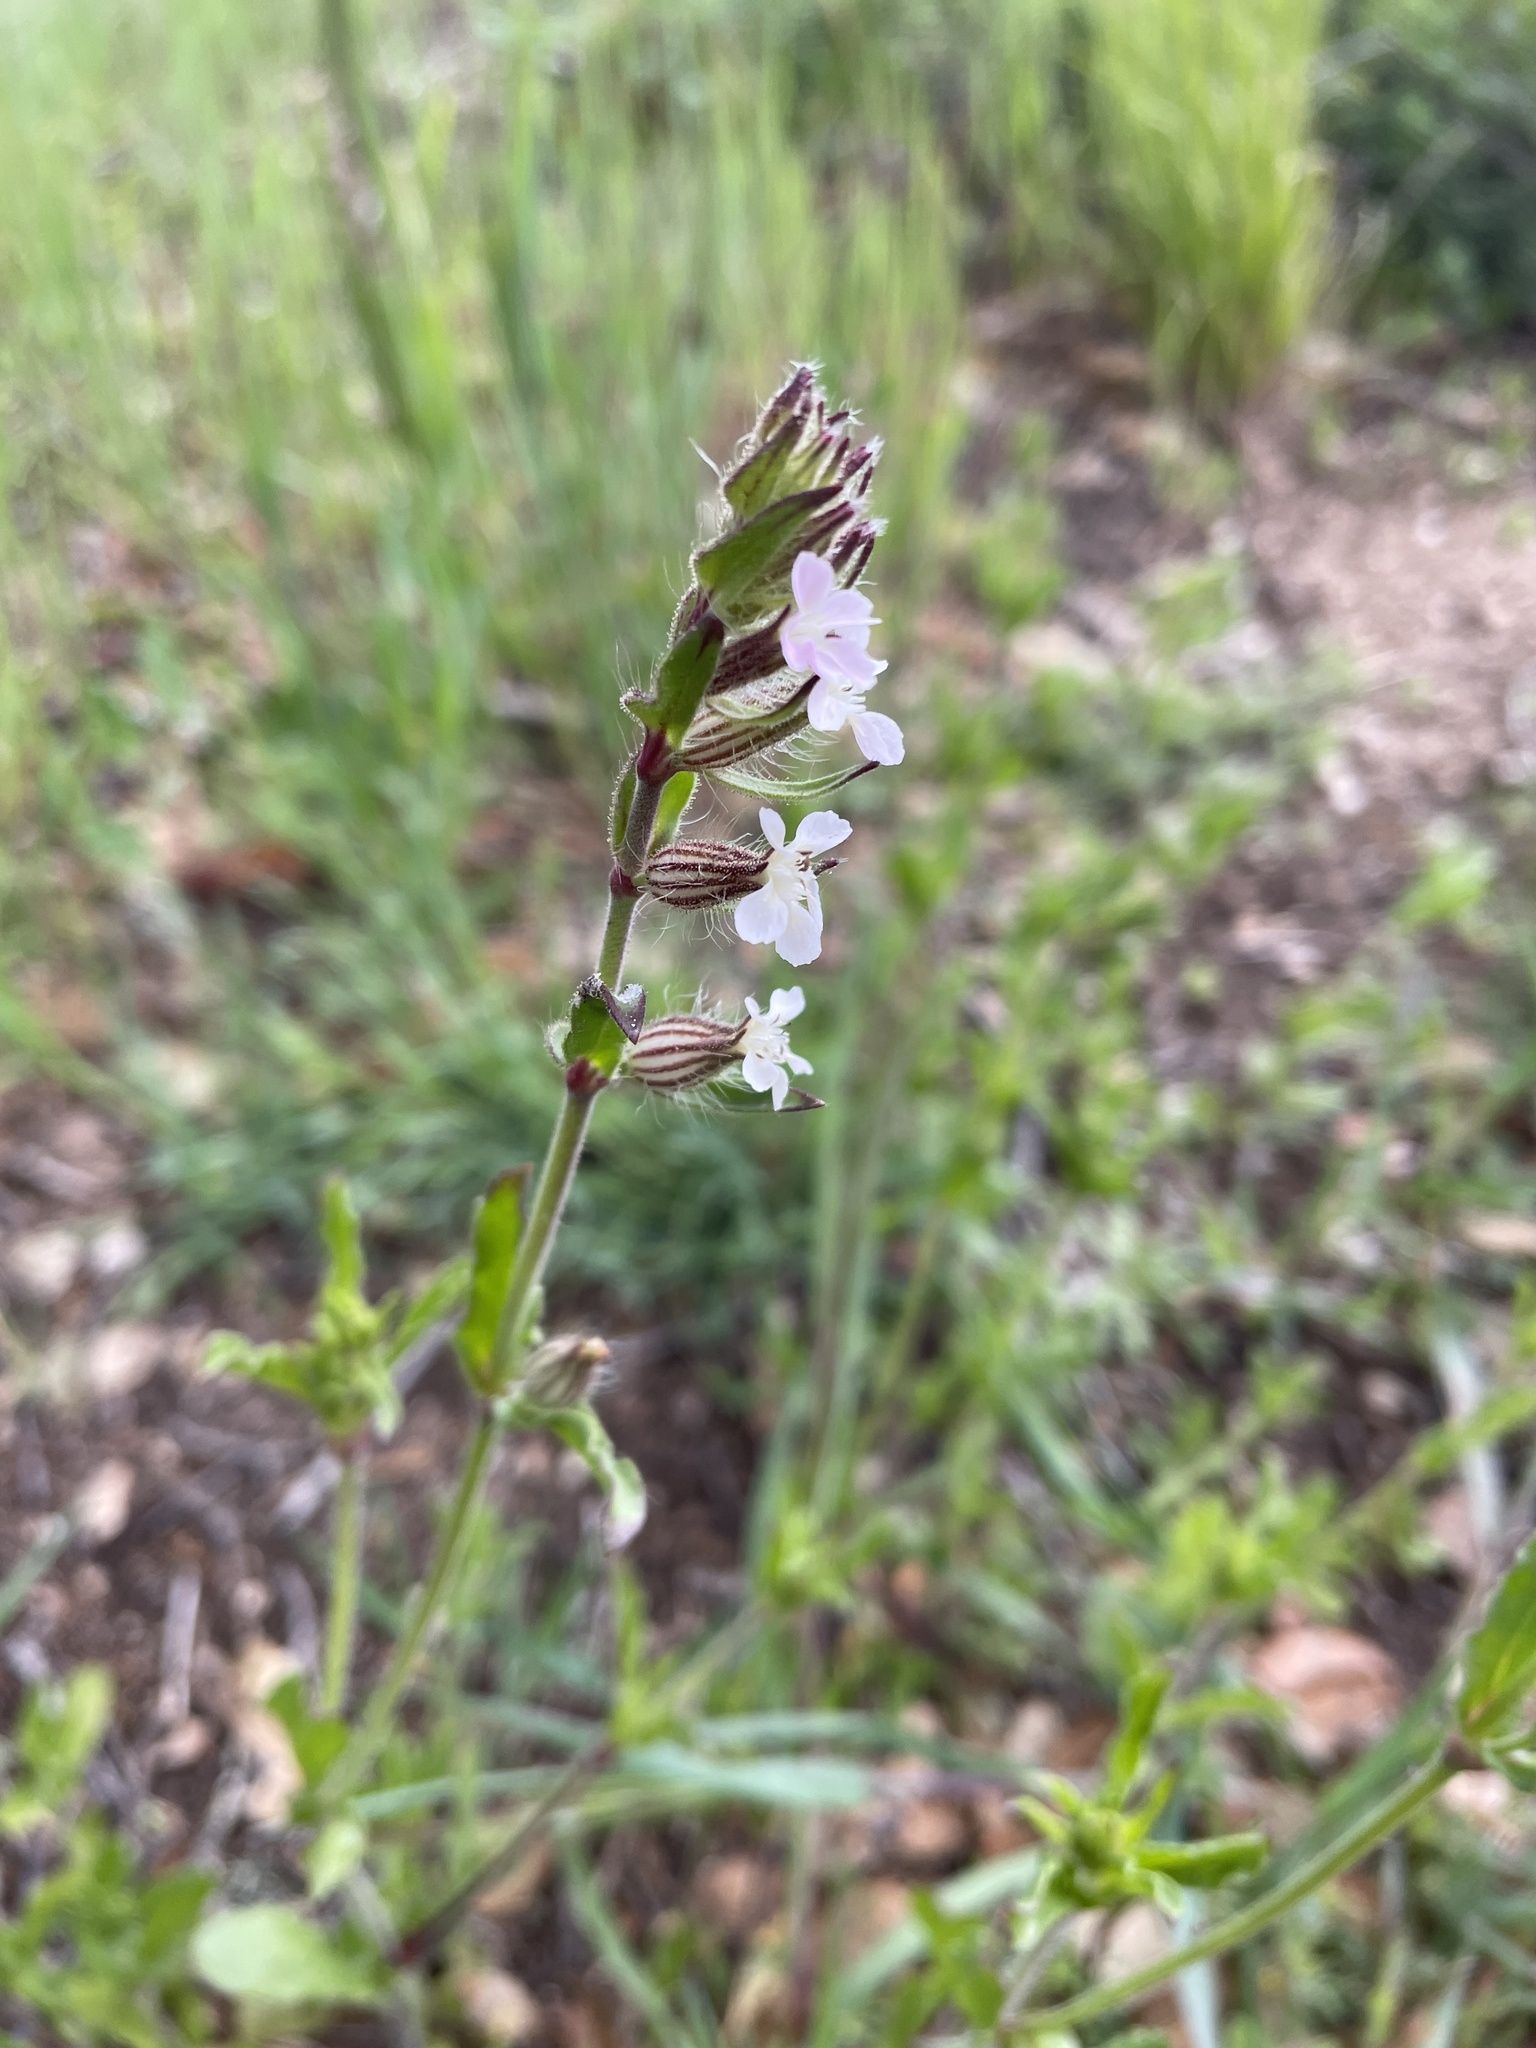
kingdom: Plantae
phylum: Tracheophyta
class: Magnoliopsida
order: Caryophyllales
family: Caryophyllaceae
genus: Silene
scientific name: Silene gallica
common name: Small-flowered catchfly
